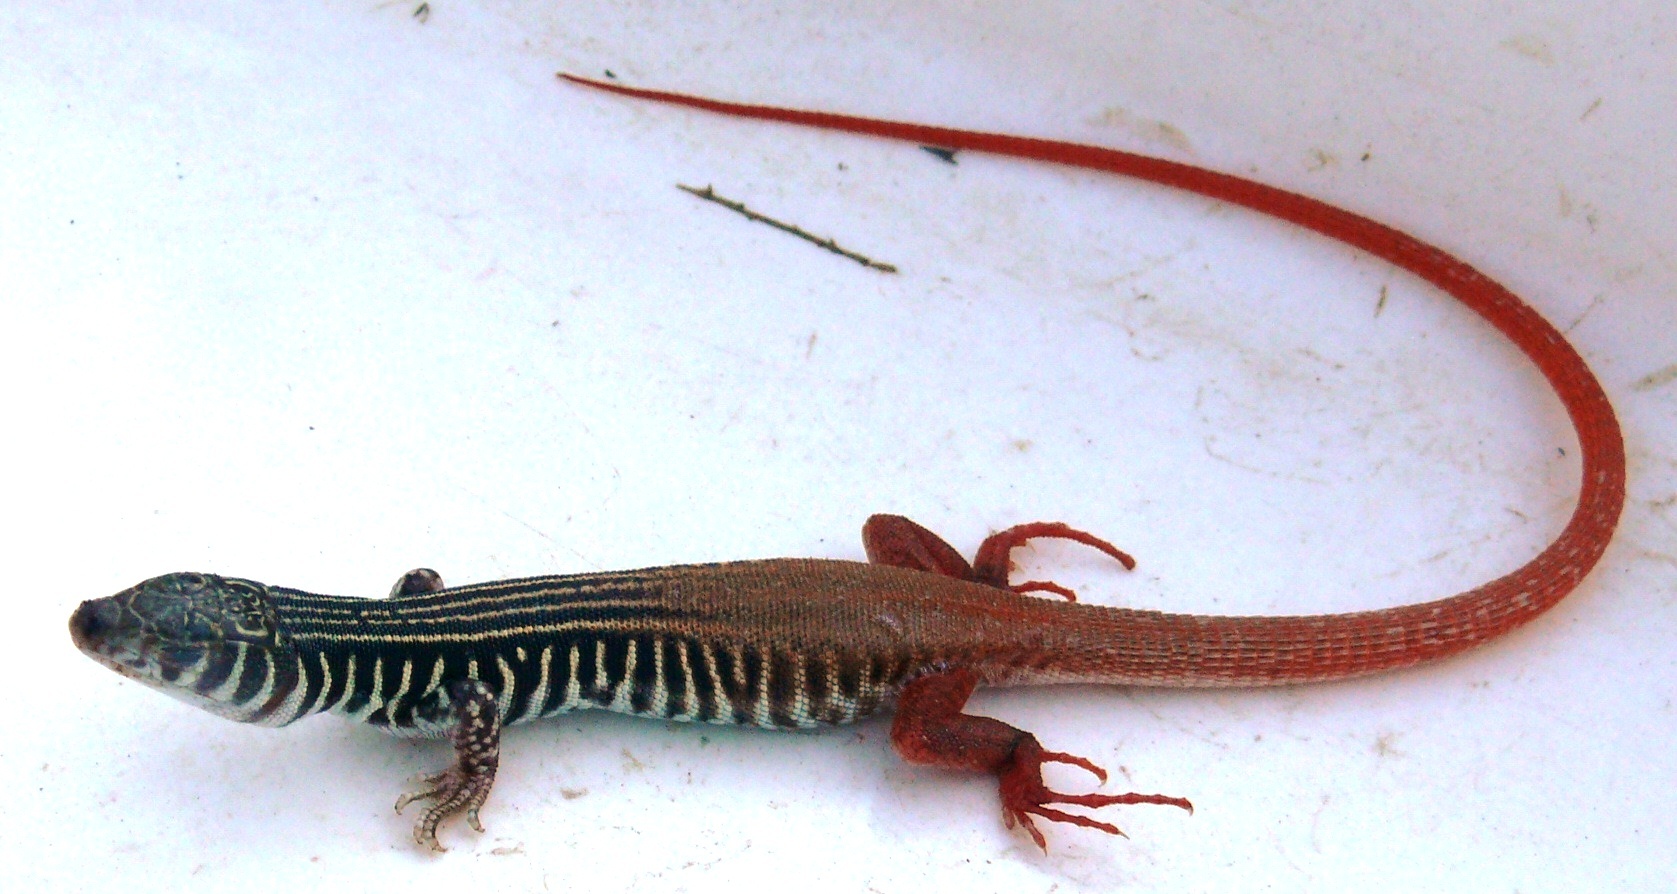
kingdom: Animalia
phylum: Chordata
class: Squamata
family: Lacertidae
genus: Nucras
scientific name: Nucras tessellata
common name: Western sandveld lizard
